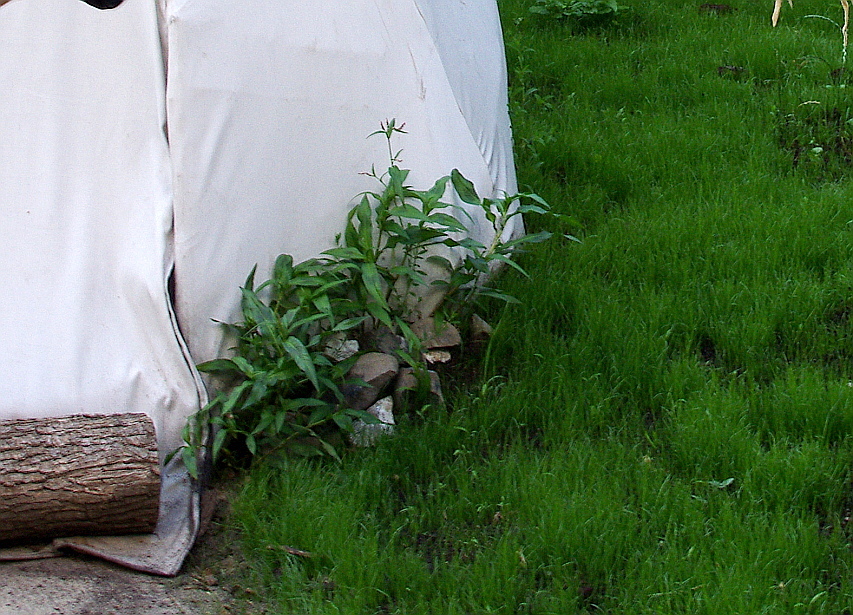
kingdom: Plantae
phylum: Tracheophyta
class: Magnoliopsida
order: Caryophyllales
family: Polygonaceae
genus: Persicaria
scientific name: Persicaria maculosa
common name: Redshank
